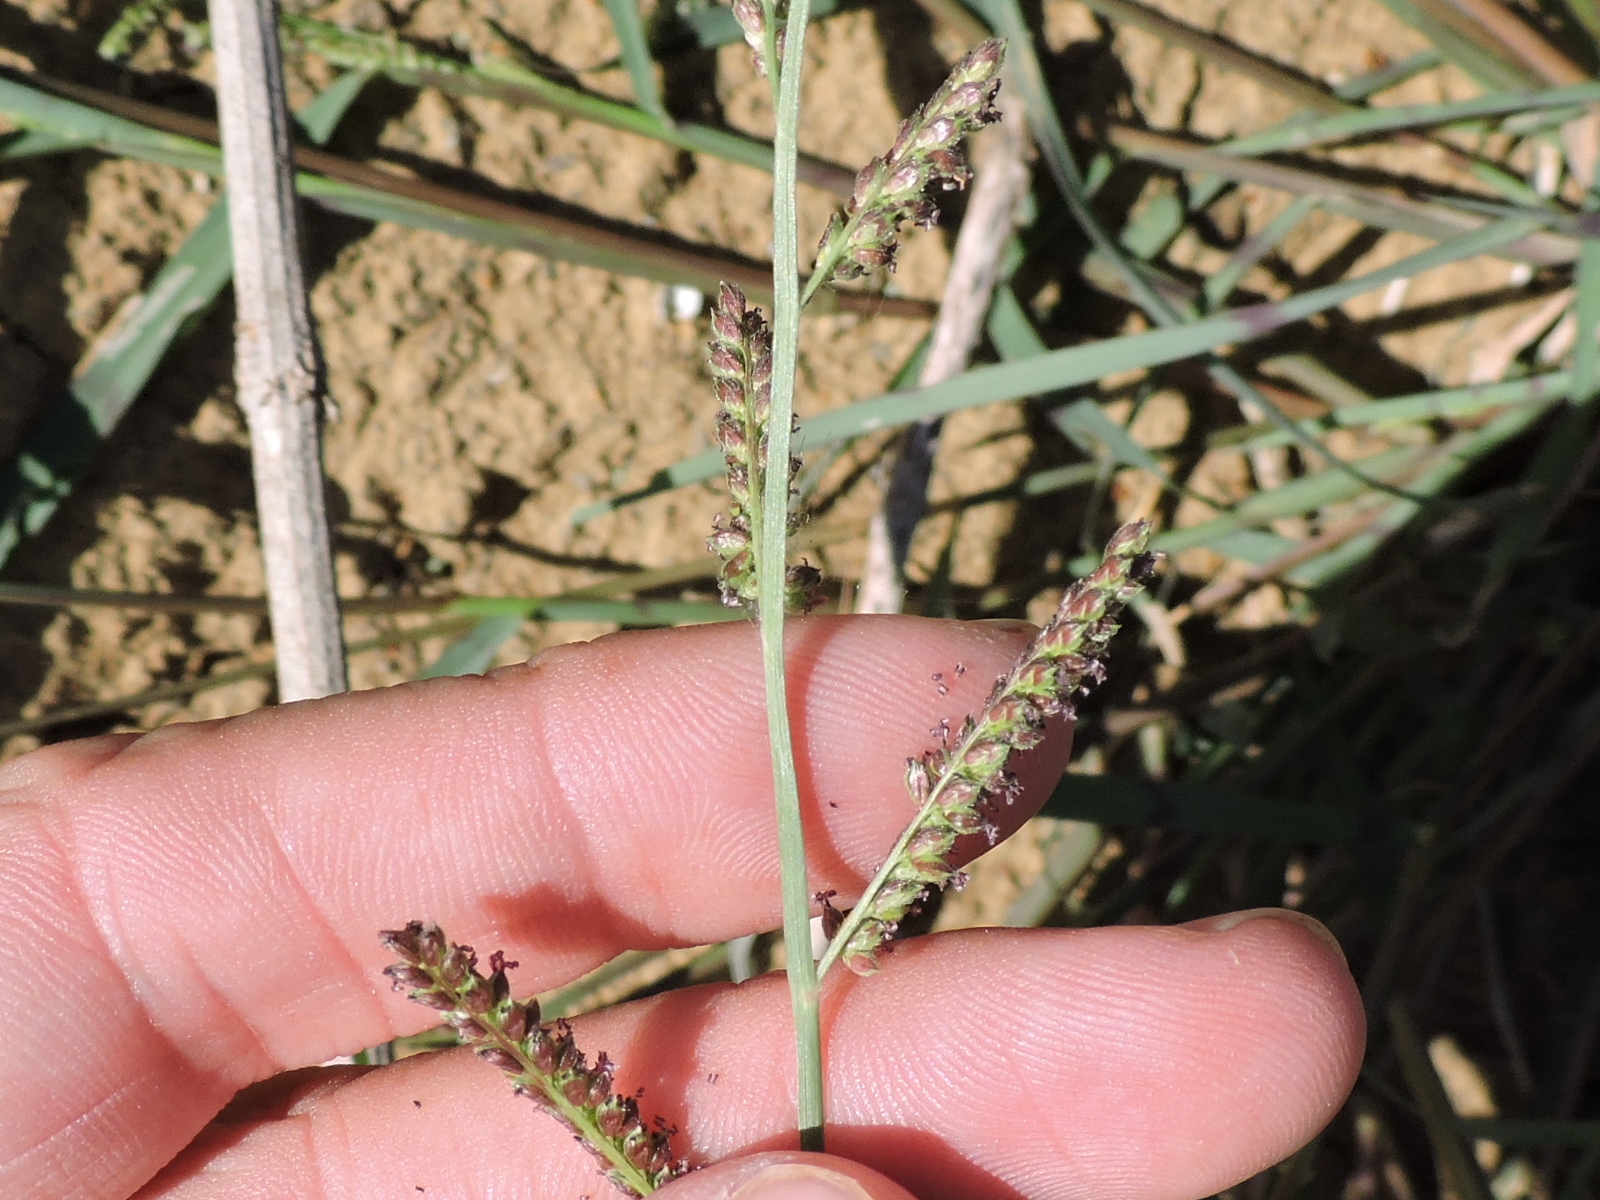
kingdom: Plantae
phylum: Tracheophyta
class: Liliopsida
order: Poales
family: Poaceae
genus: Echinochloa
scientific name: Echinochloa colonum
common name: Jungle rice
